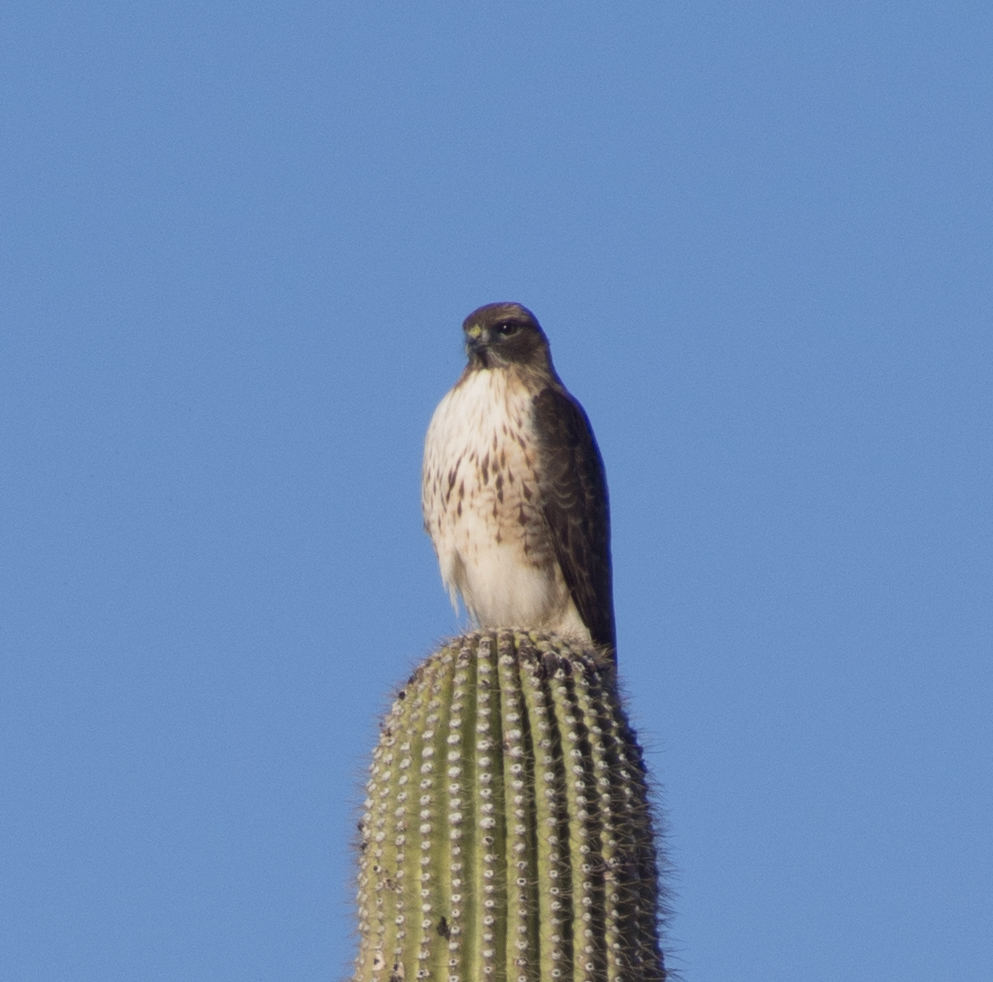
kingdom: Animalia
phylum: Chordata
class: Aves
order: Accipitriformes
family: Accipitridae
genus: Buteo
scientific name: Buteo jamaicensis
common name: Red-tailed hawk
